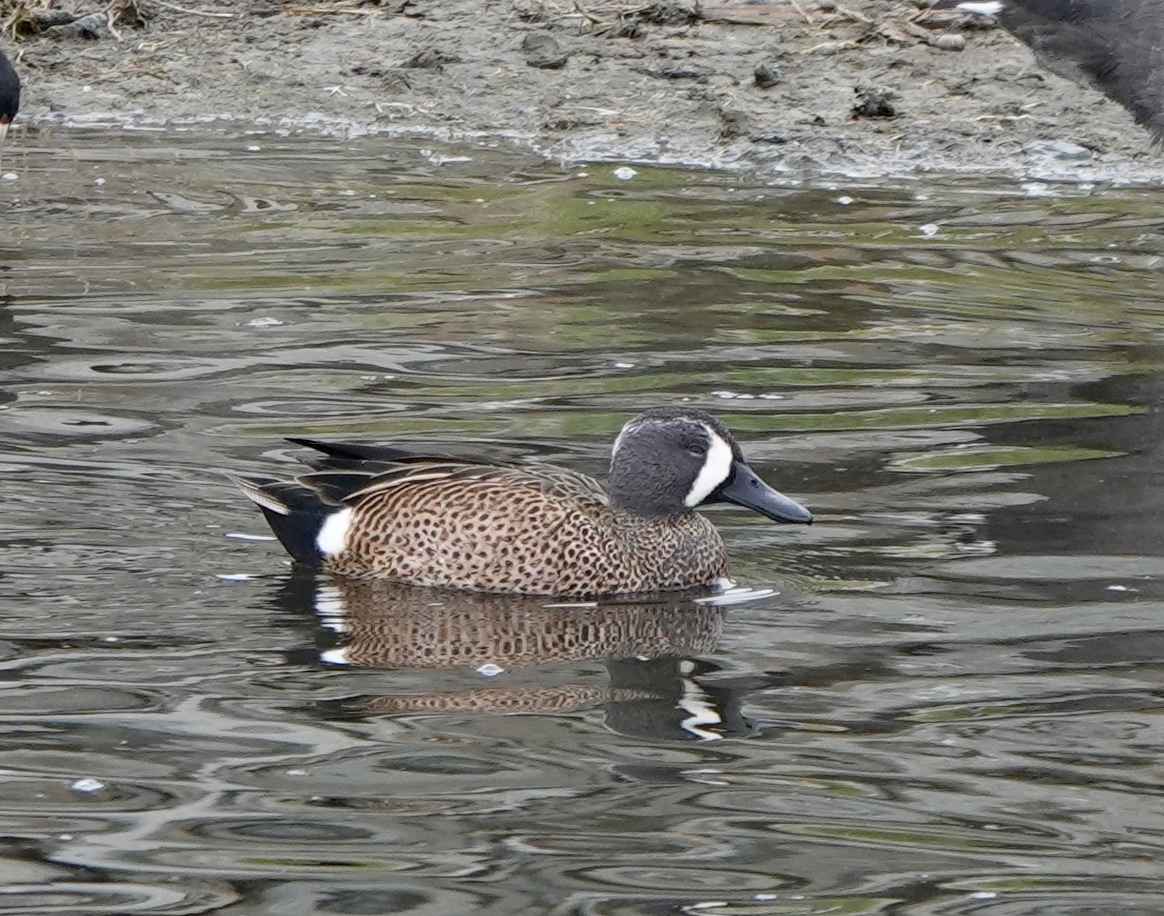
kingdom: Animalia
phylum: Chordata
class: Aves
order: Anseriformes
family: Anatidae
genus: Spatula
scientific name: Spatula discors
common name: Blue-winged teal
